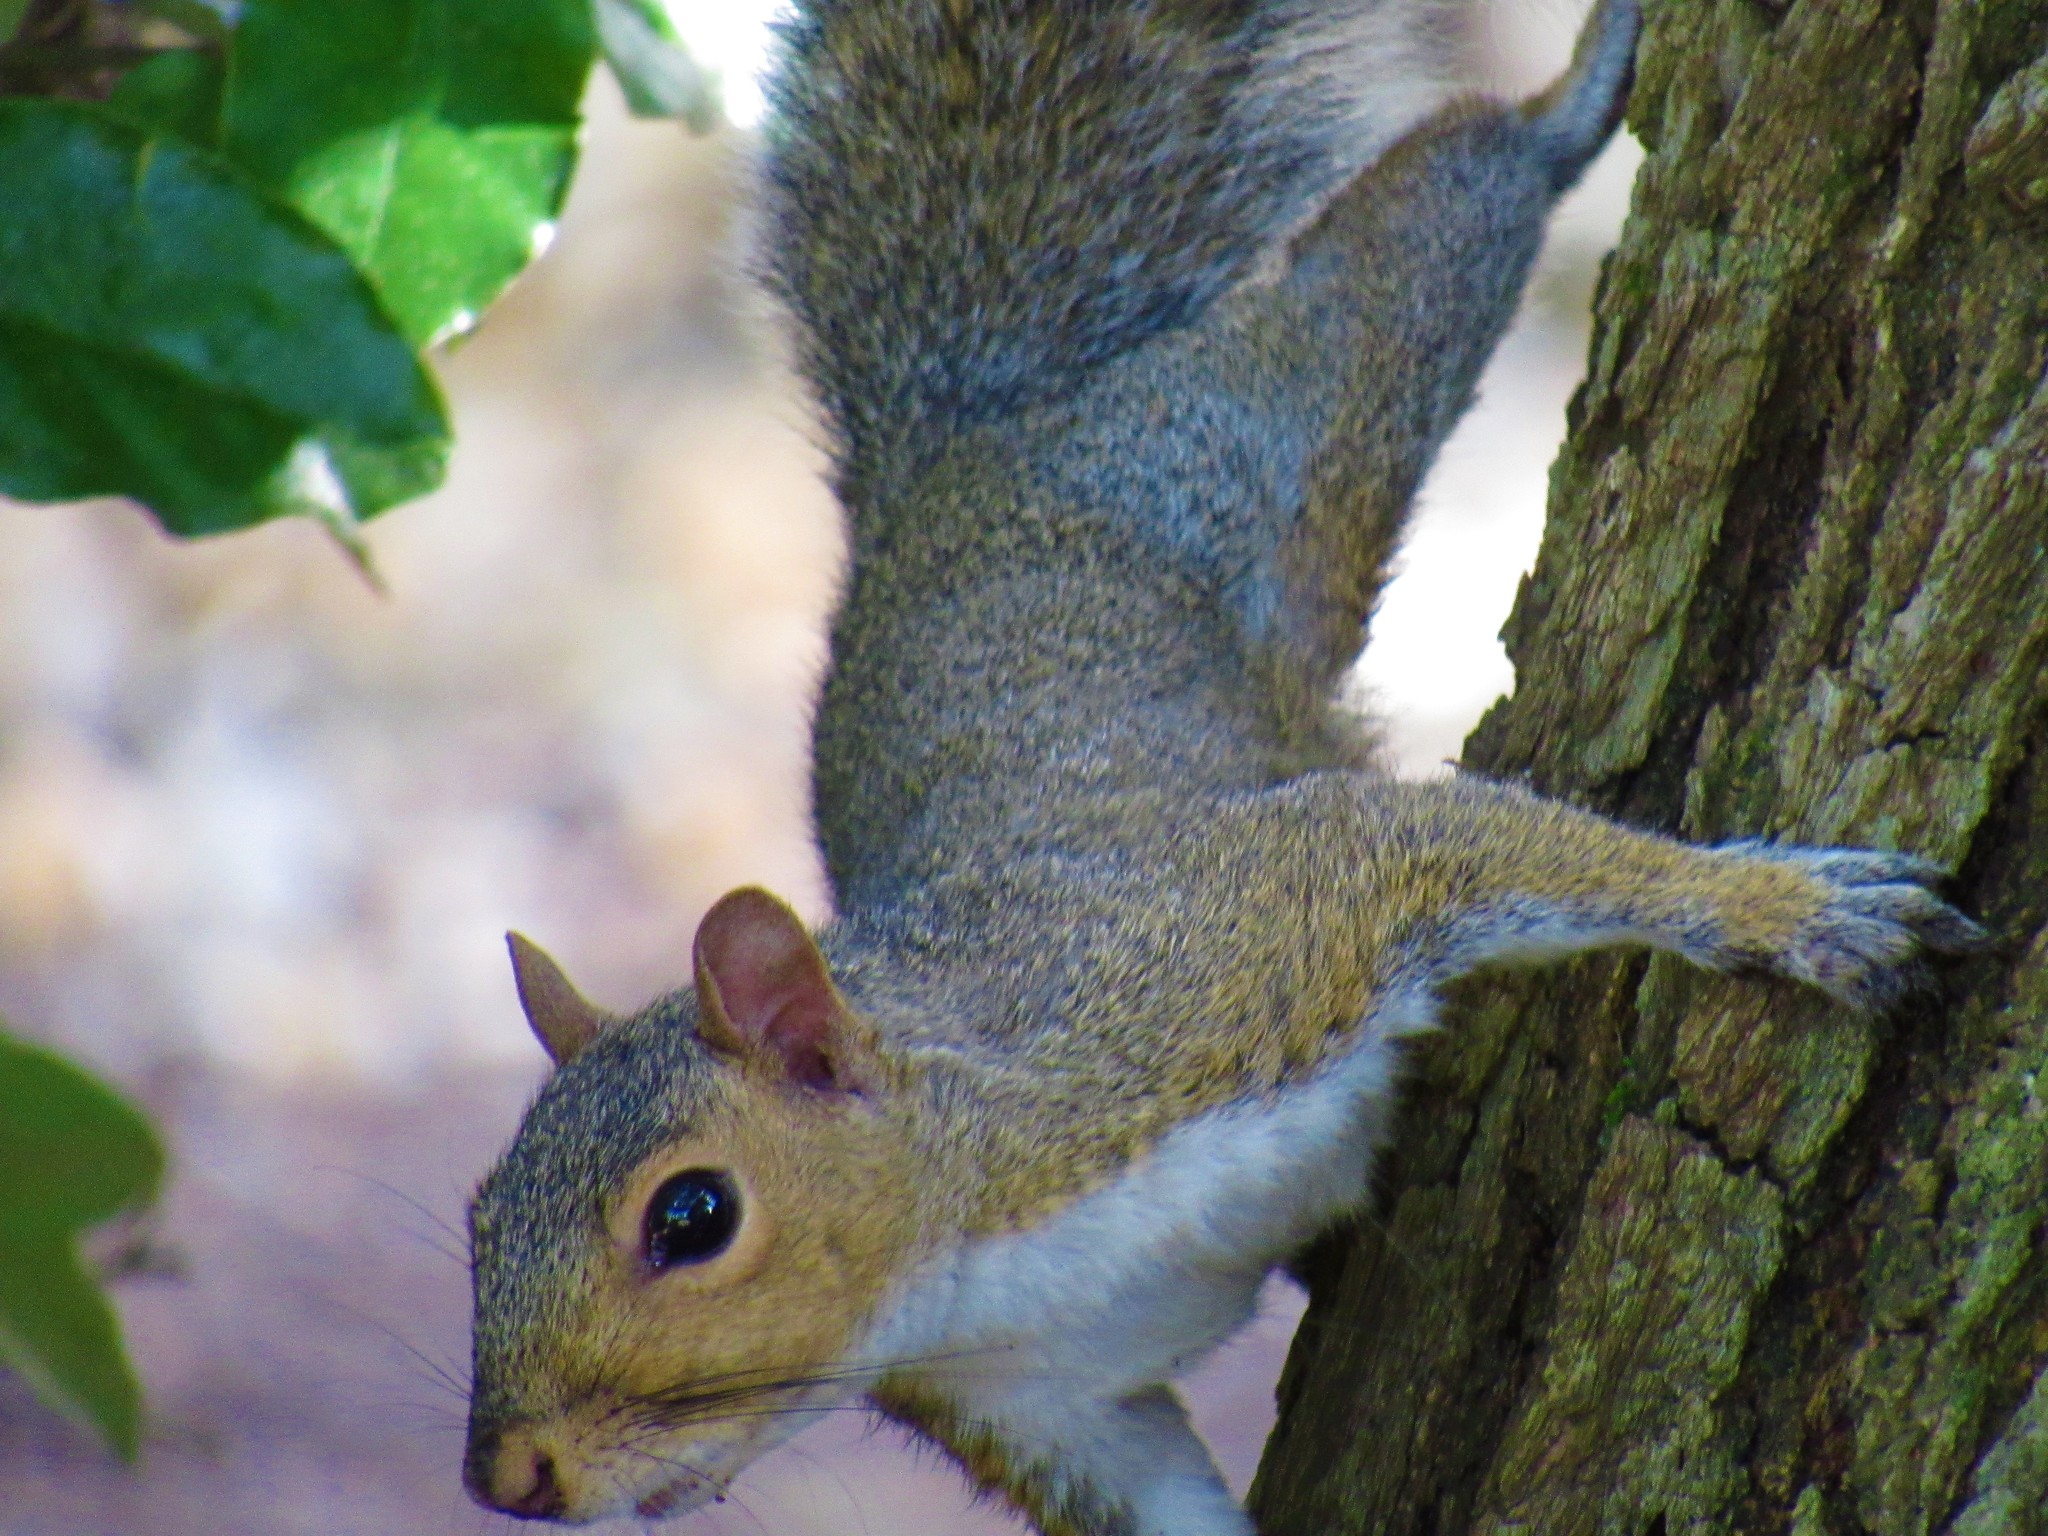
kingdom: Animalia
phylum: Chordata
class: Mammalia
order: Rodentia
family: Sciuridae
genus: Sciurus
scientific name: Sciurus carolinensis
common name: Eastern gray squirrel
